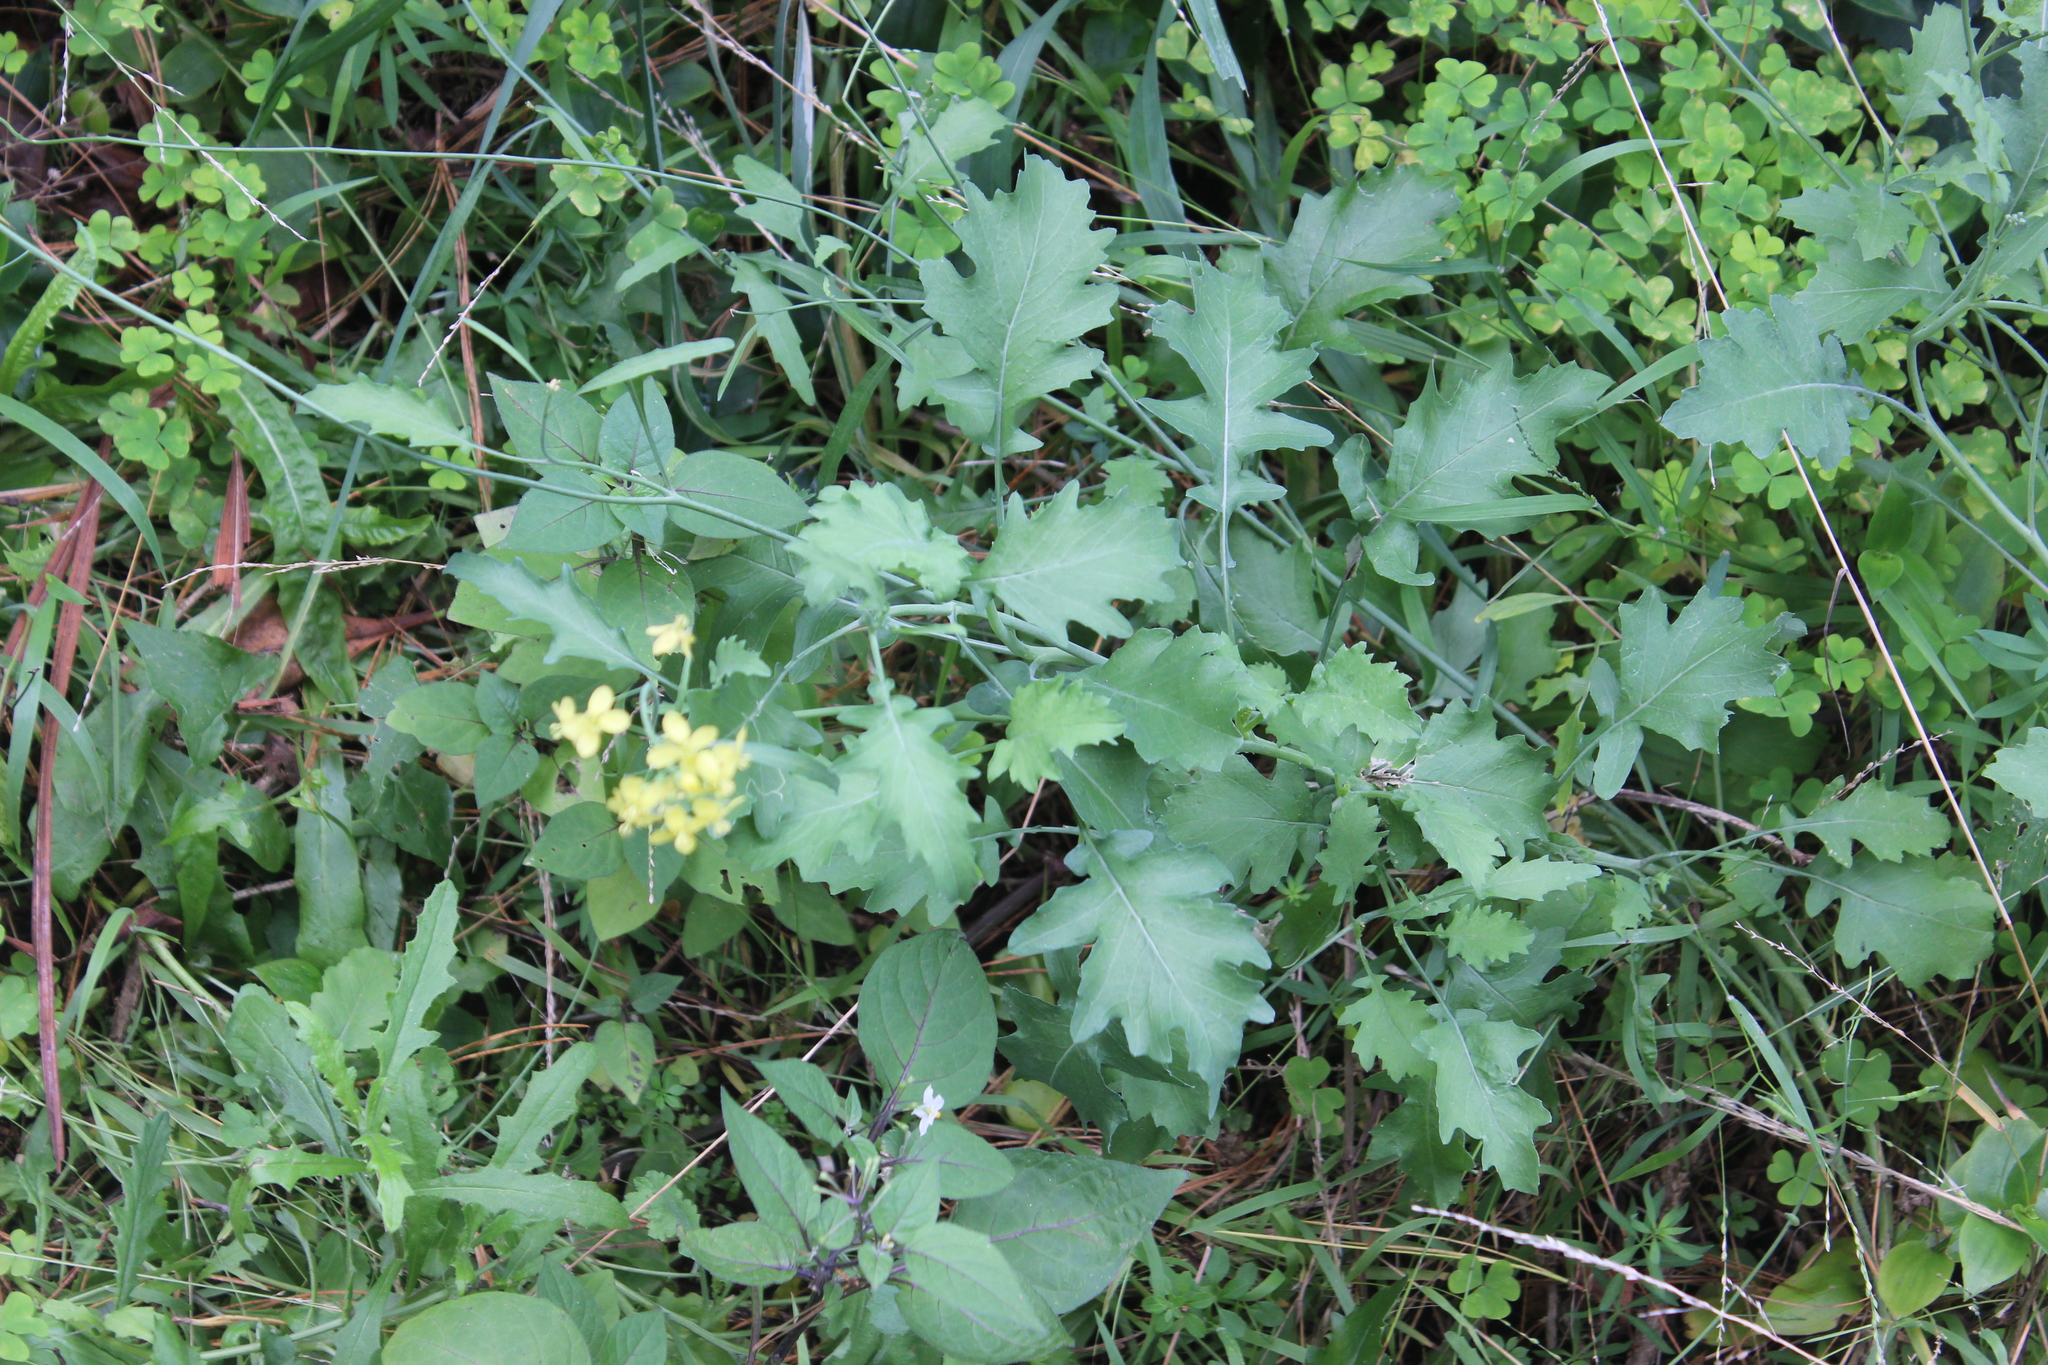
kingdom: Plantae
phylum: Tracheophyta
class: Magnoliopsida
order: Brassicales
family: Brassicaceae
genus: Raphanus
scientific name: Raphanus raphanistrum
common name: Wild radish
